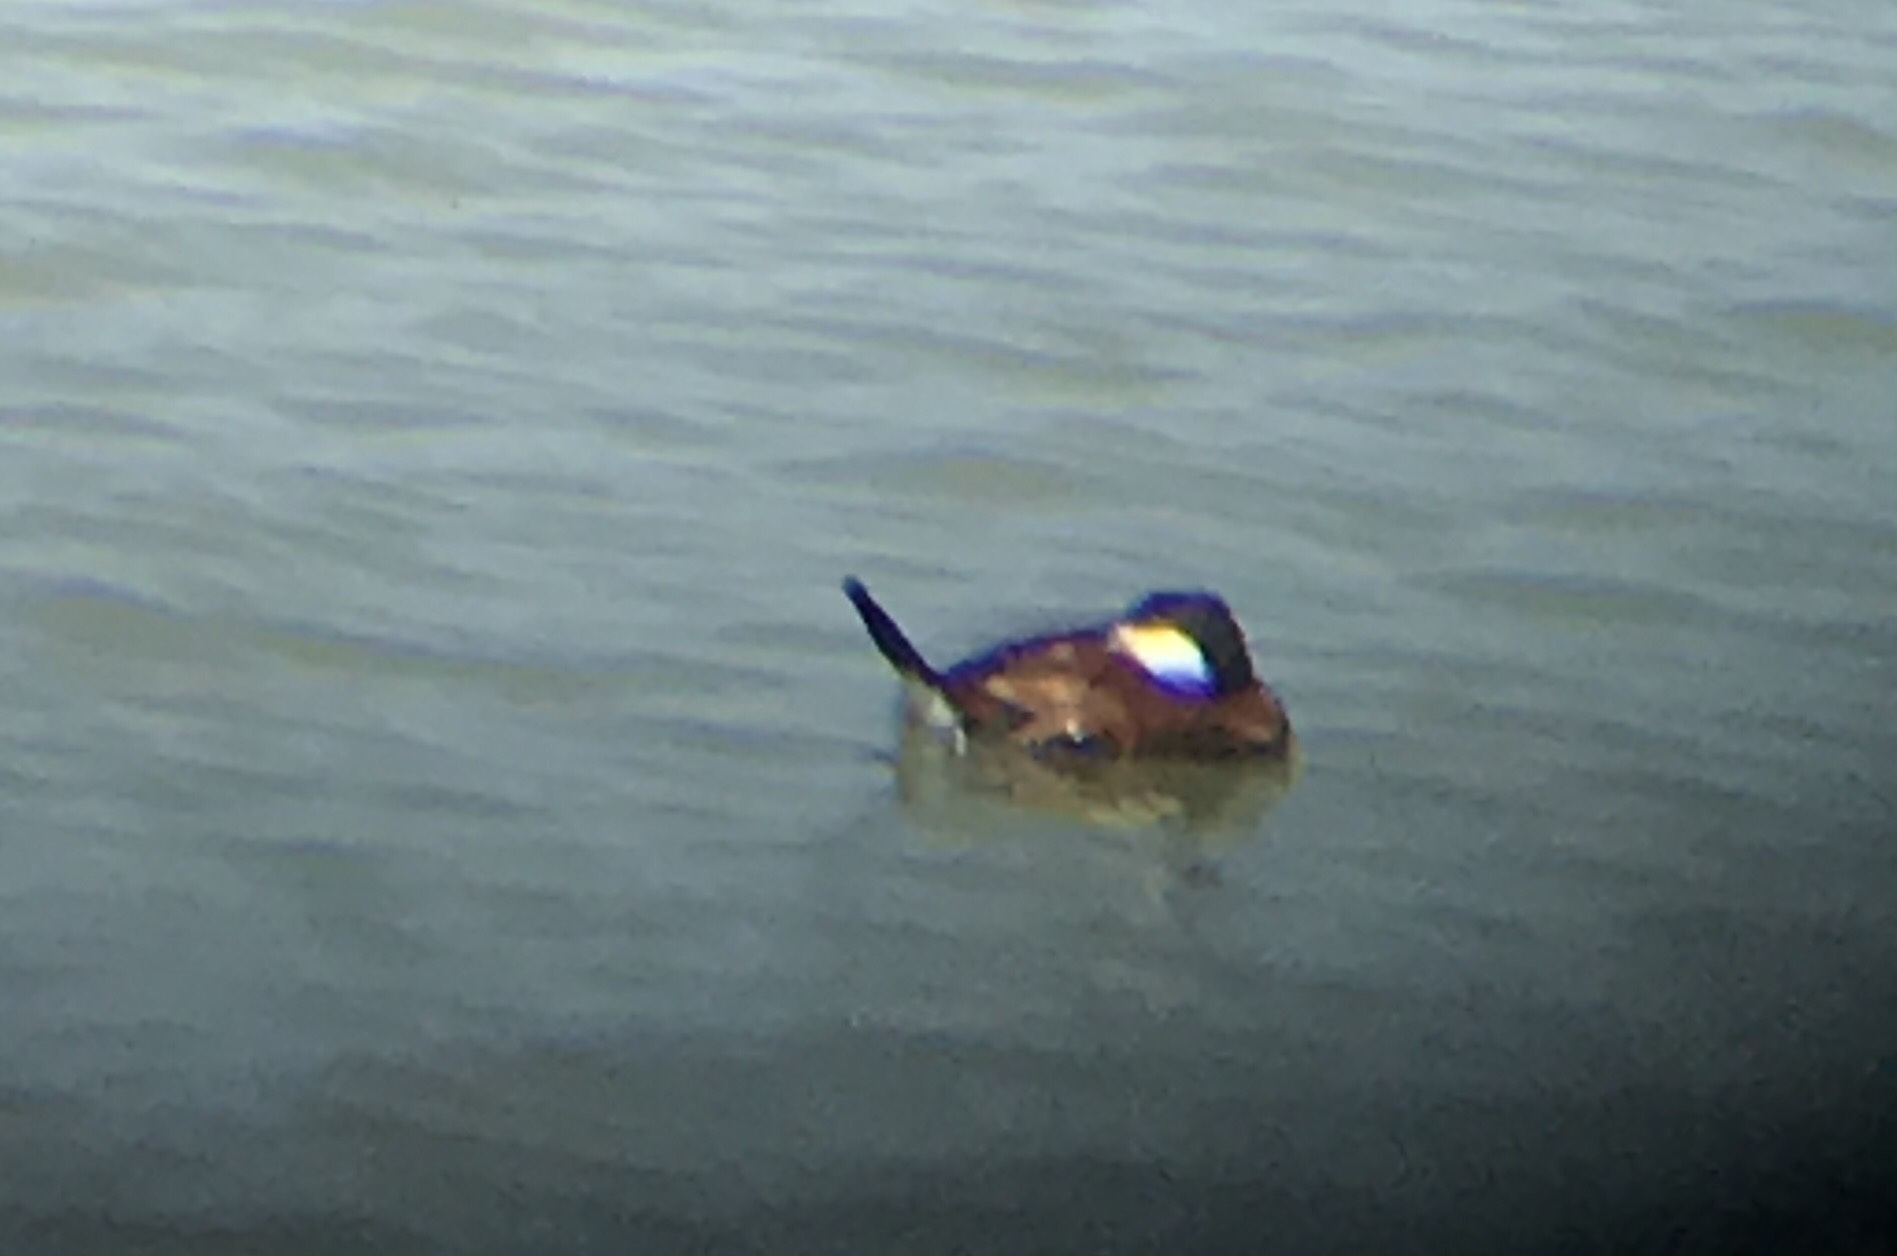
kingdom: Animalia
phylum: Chordata
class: Aves
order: Anseriformes
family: Anatidae
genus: Oxyura
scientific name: Oxyura jamaicensis
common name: Ruddy duck
